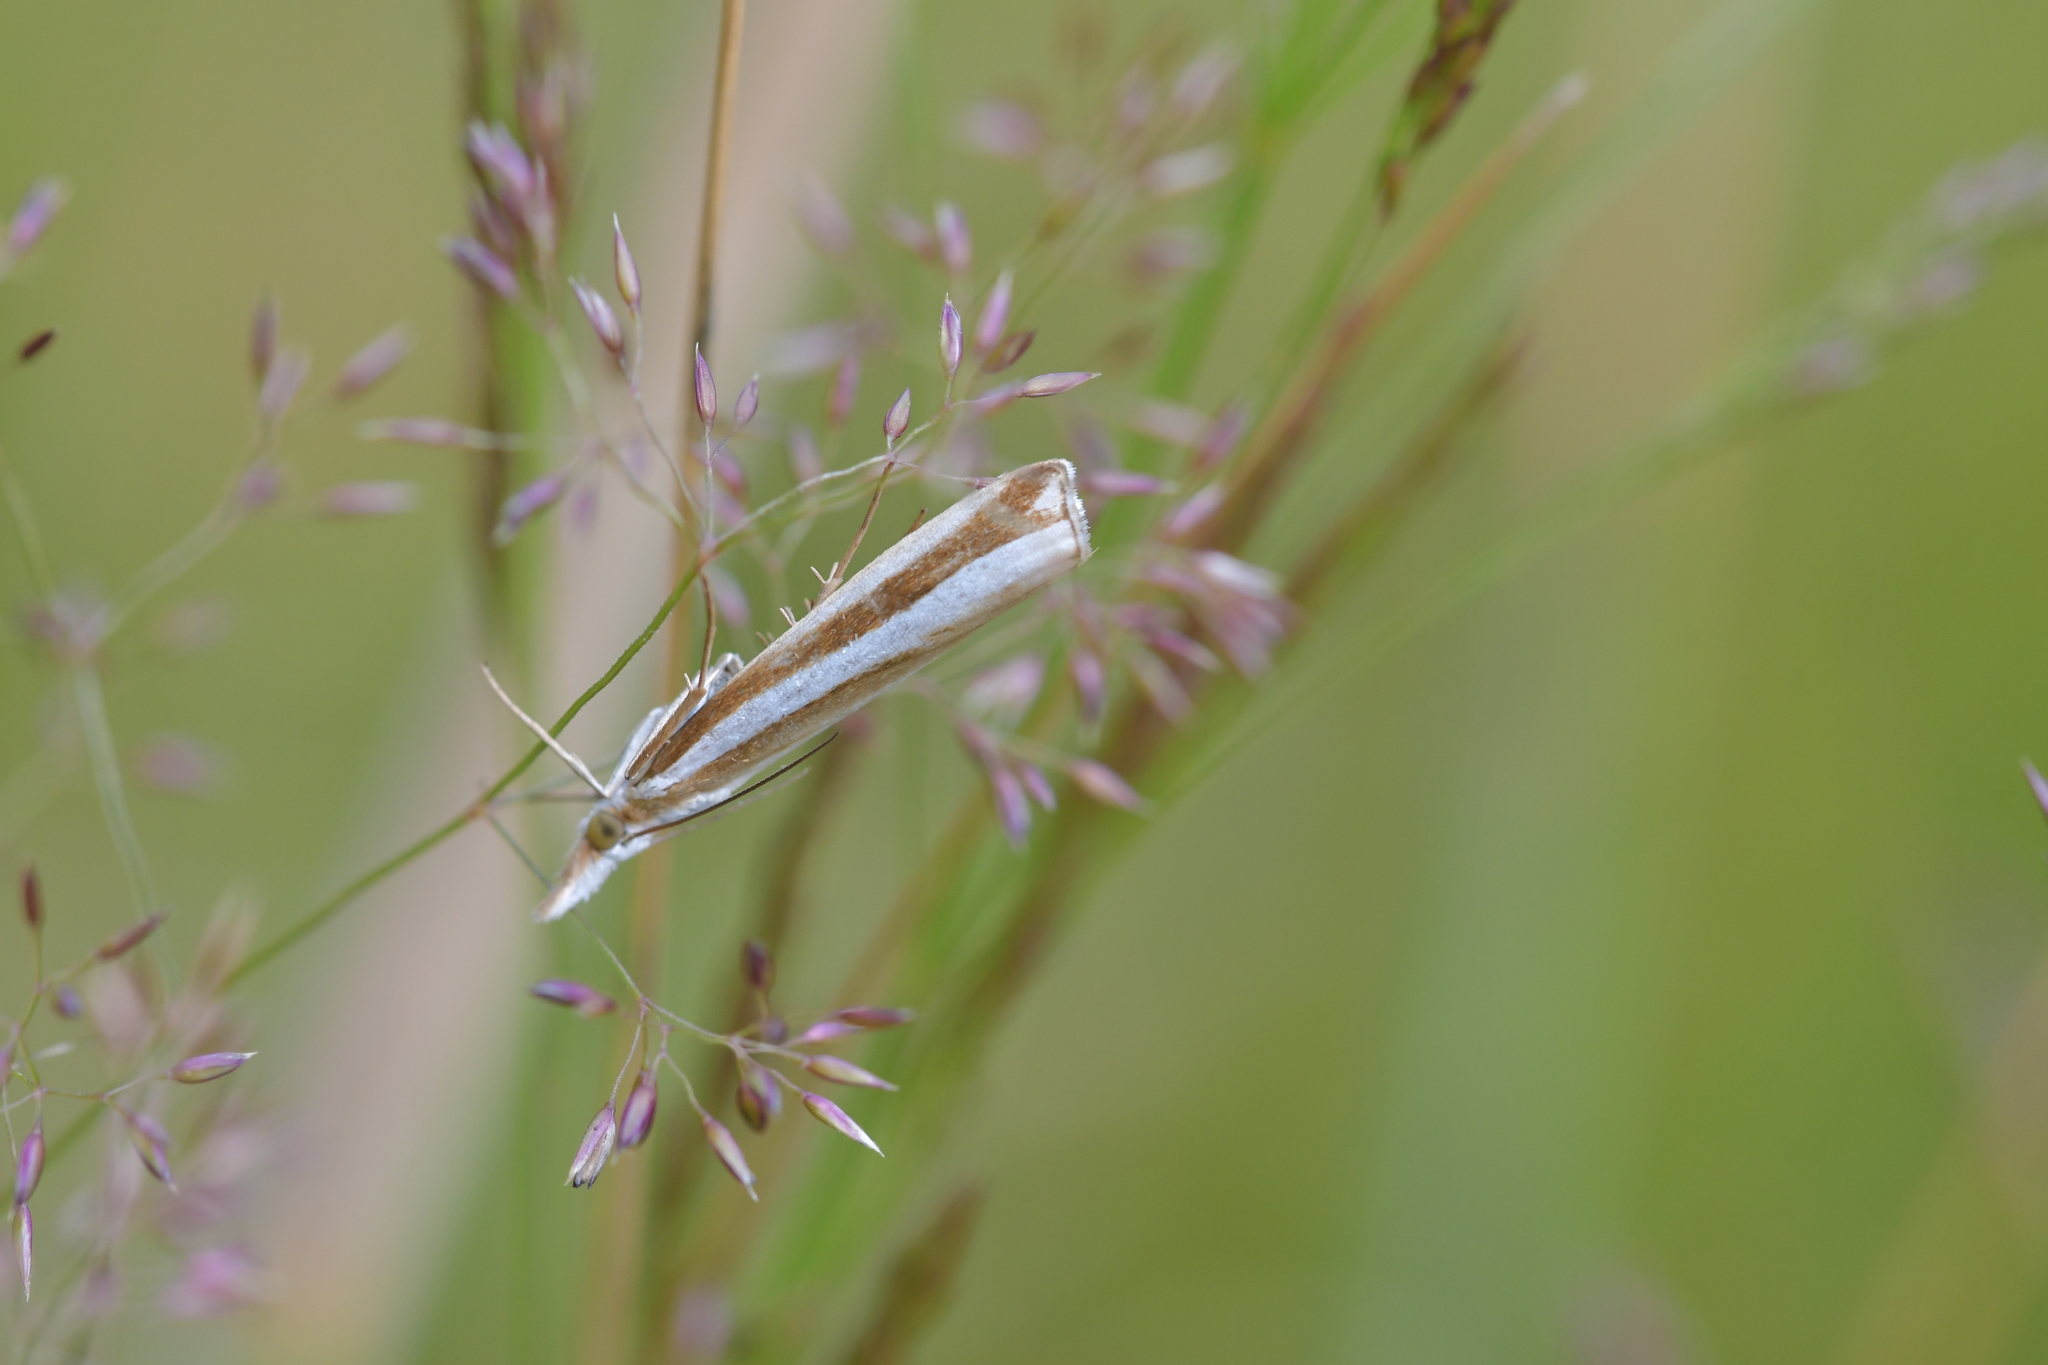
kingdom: Animalia
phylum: Arthropoda
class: Insecta
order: Lepidoptera
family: Crambidae
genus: Orocrambus
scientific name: Orocrambus apicellus
